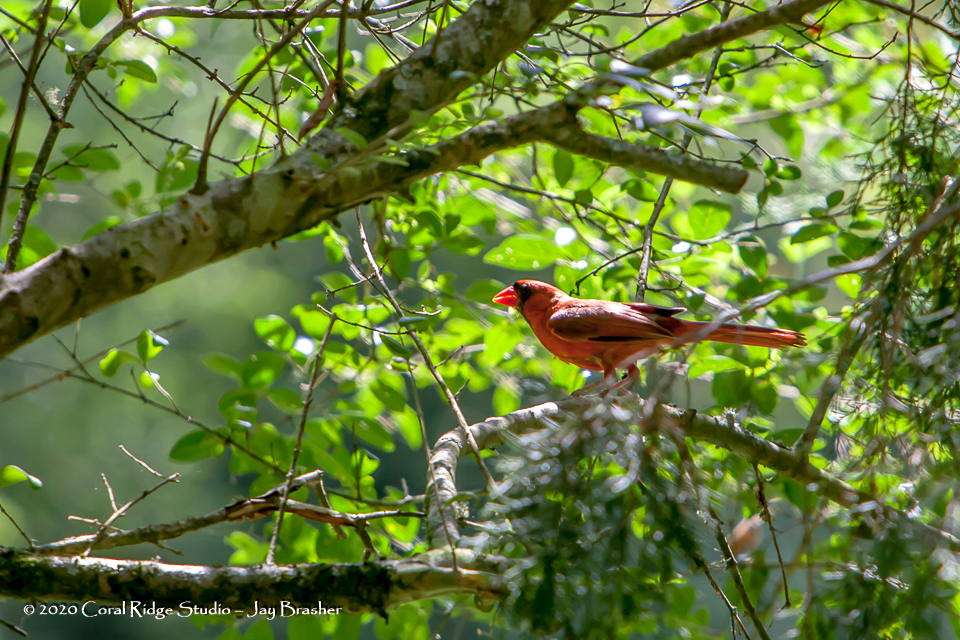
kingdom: Animalia
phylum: Chordata
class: Aves
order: Passeriformes
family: Cardinalidae
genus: Cardinalis
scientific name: Cardinalis cardinalis
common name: Northern cardinal
